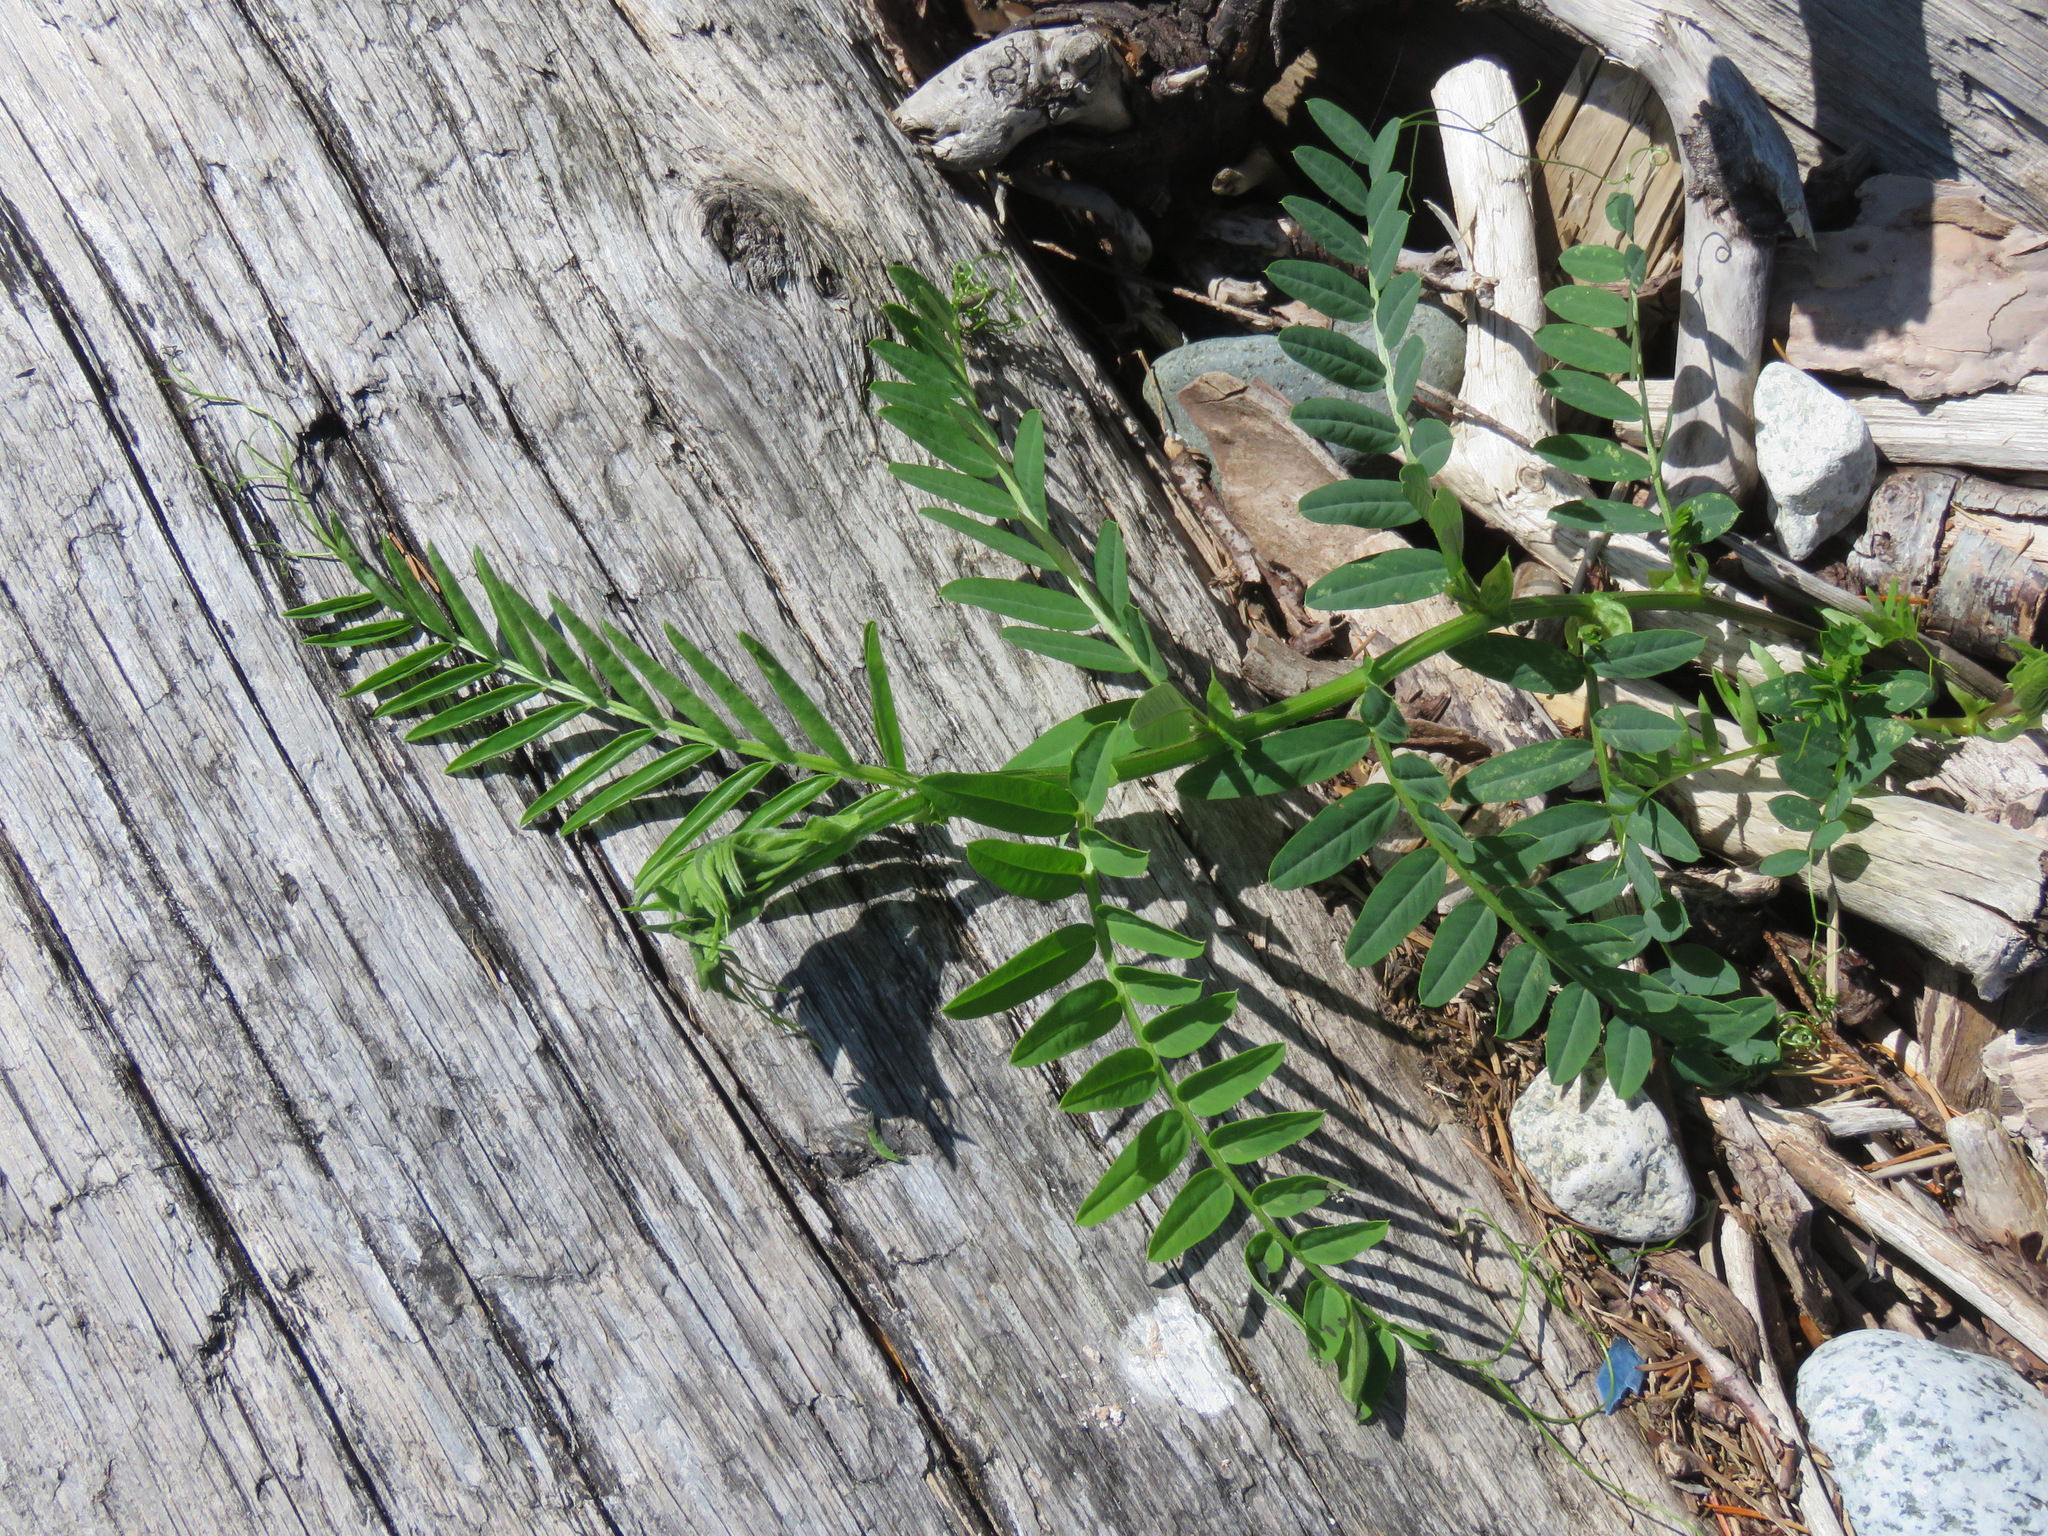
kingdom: Plantae
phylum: Tracheophyta
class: Magnoliopsida
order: Fabales
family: Fabaceae
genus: Vicia
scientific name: Vicia
